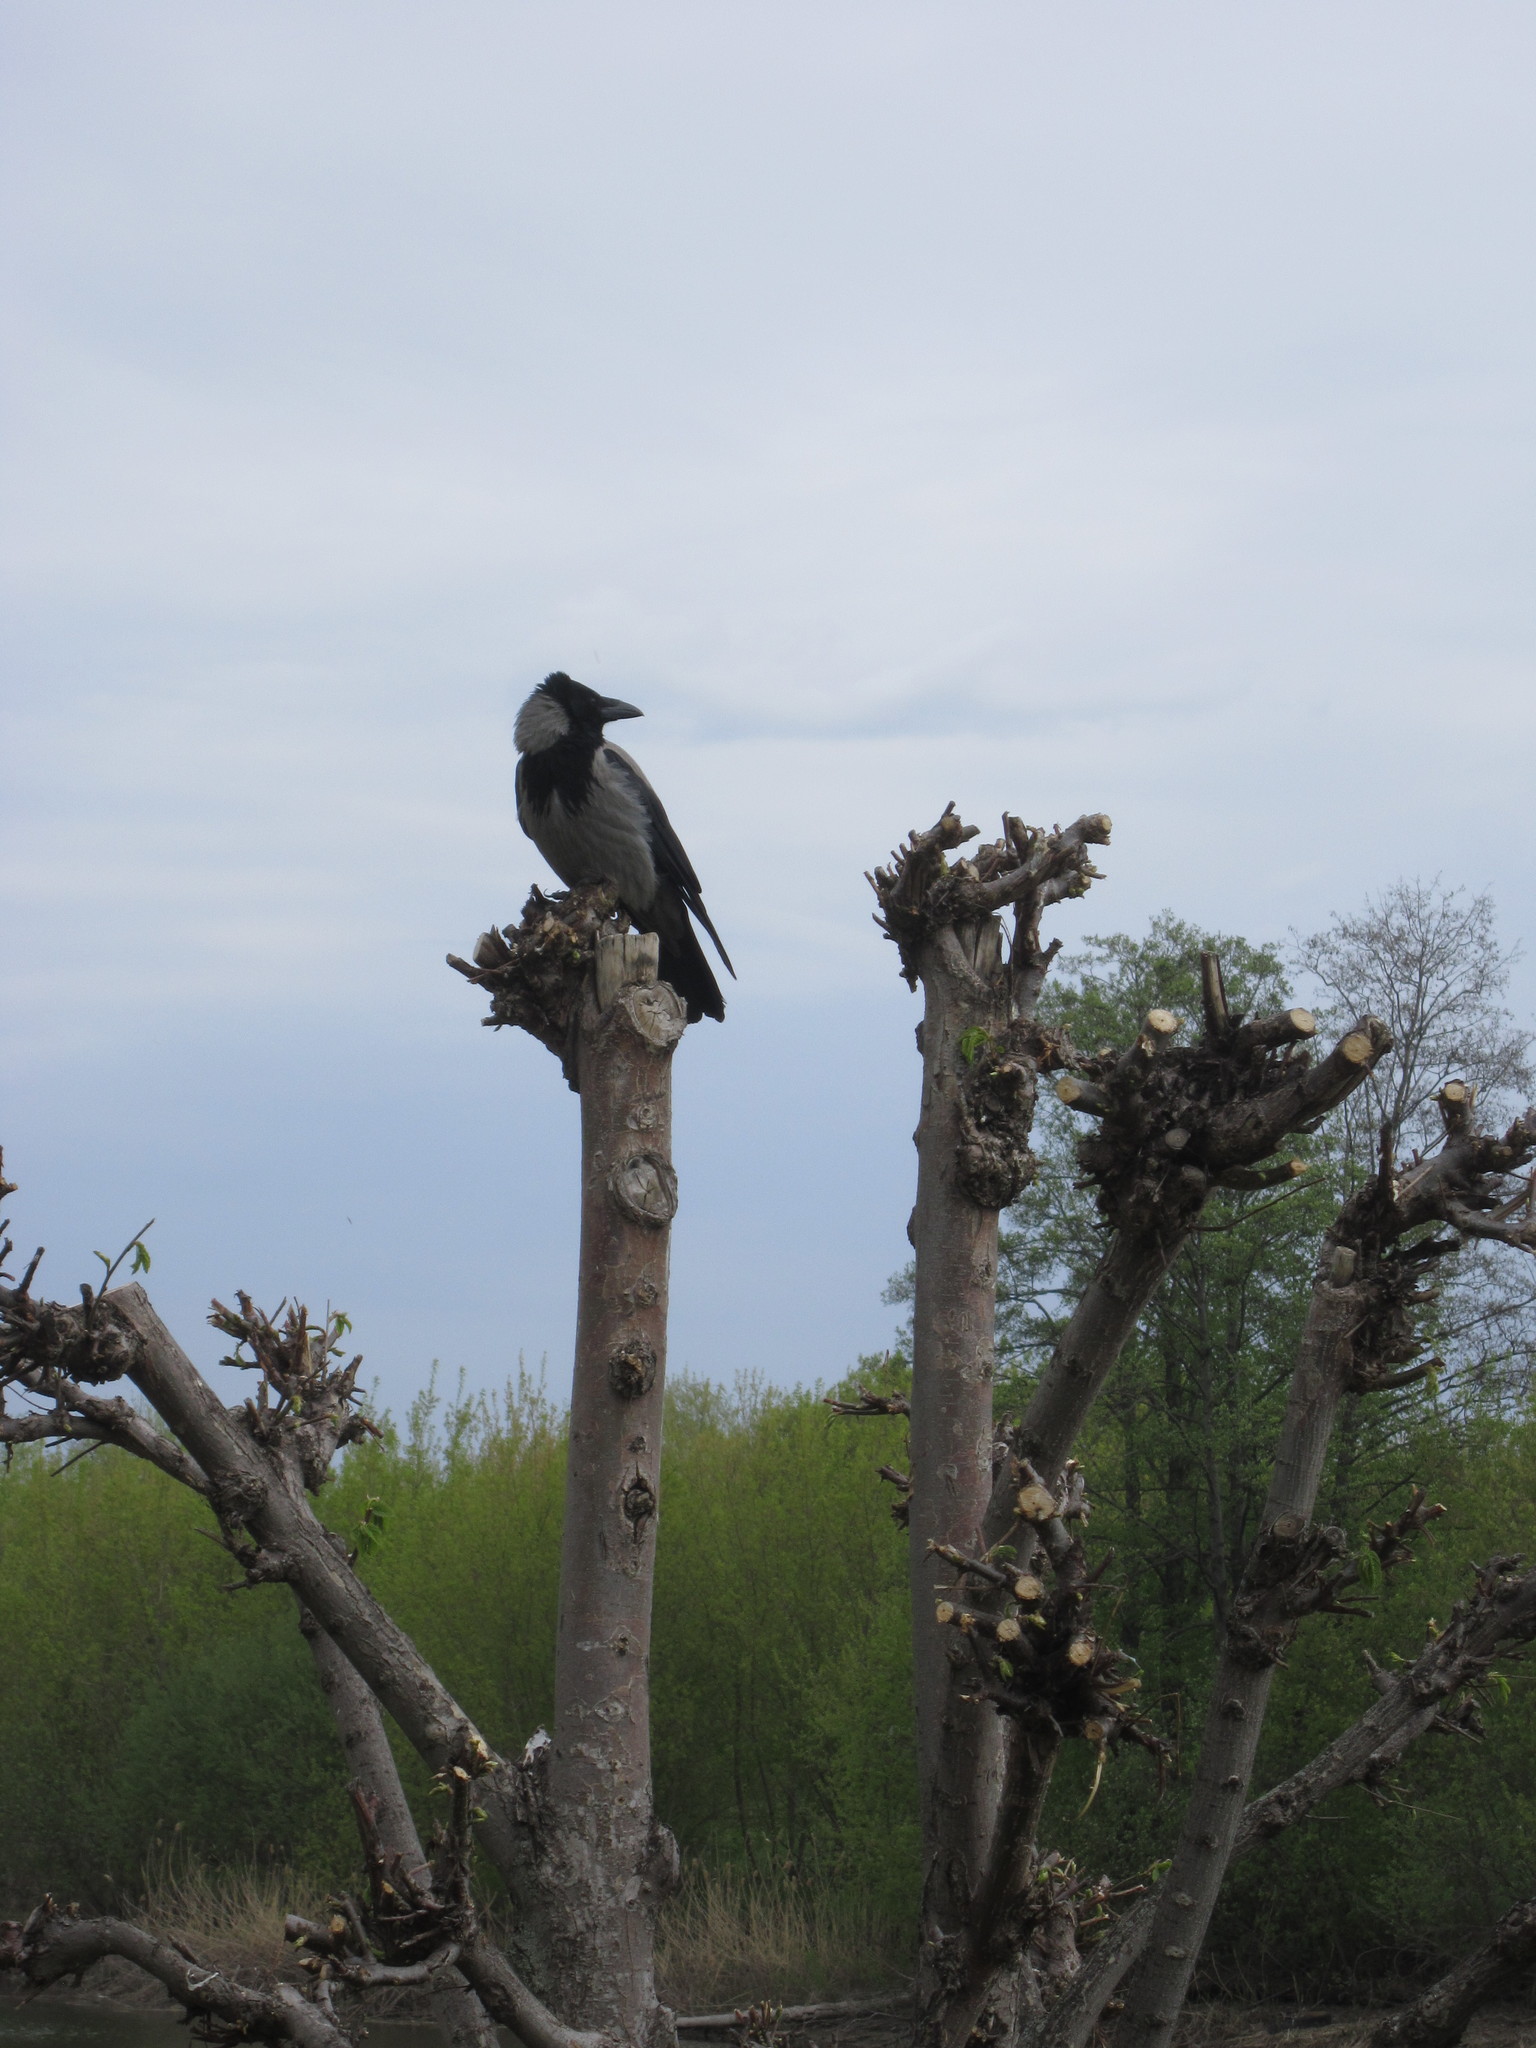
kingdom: Animalia
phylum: Chordata
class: Aves
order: Passeriformes
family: Corvidae
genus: Corvus
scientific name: Corvus cornix
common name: Hooded crow
